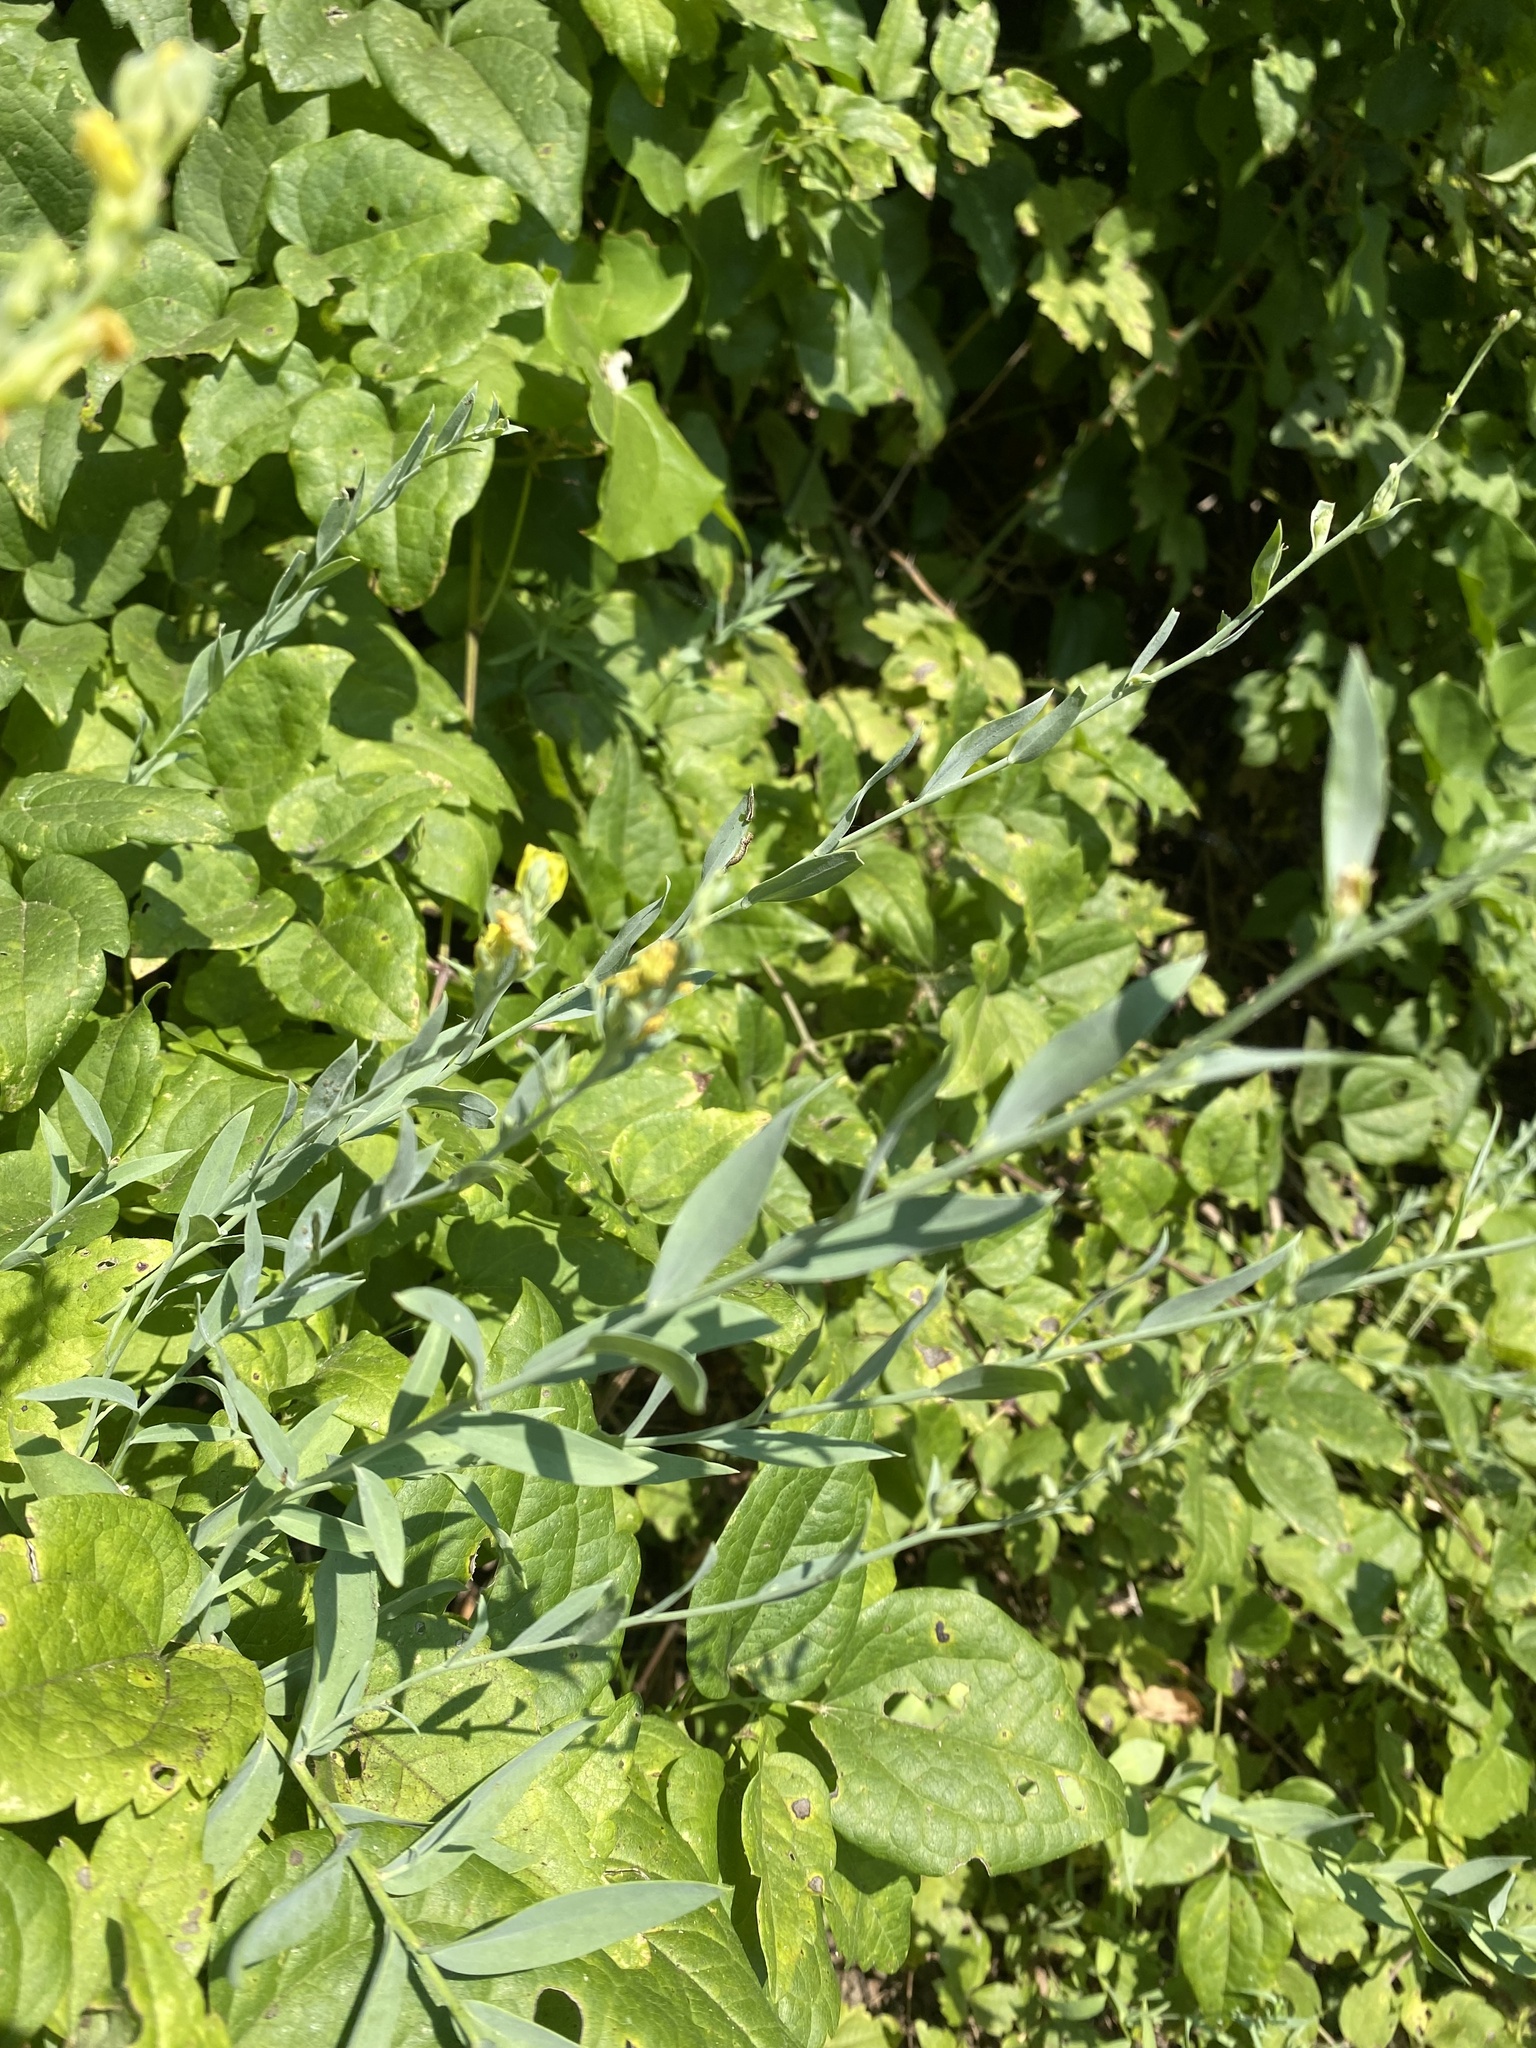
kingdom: Plantae
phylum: Tracheophyta
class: Magnoliopsida
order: Lamiales
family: Plantaginaceae
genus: Linaria
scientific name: Linaria genistifolia
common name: Broomleaf toadflax
